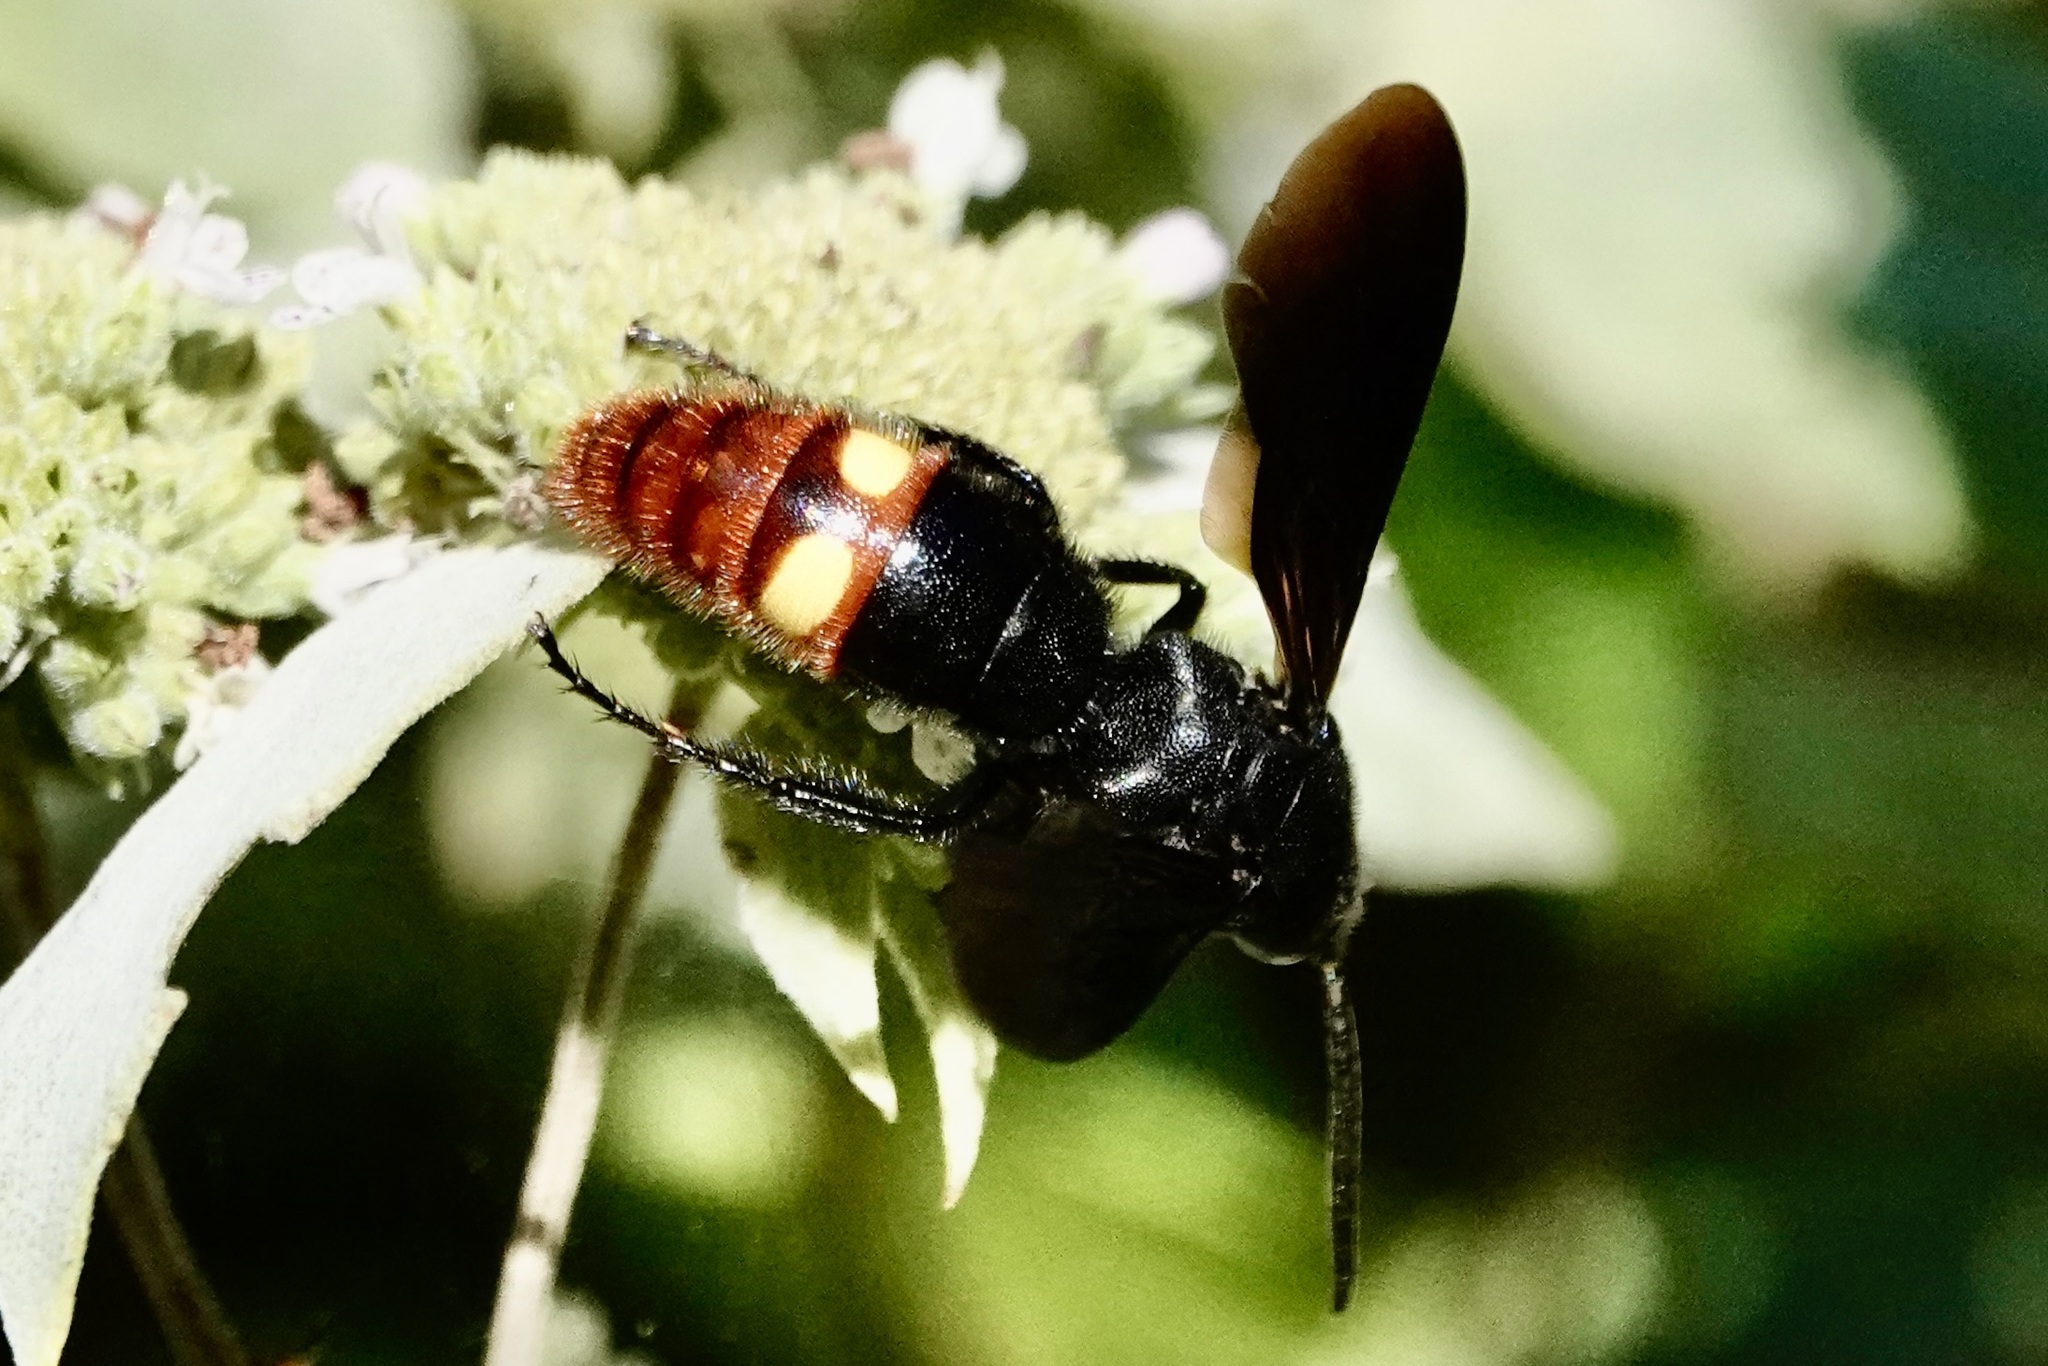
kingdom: Animalia
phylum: Arthropoda
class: Insecta
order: Hymenoptera
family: Scoliidae
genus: Scolia
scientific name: Scolia dubia
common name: Blue-winged scoliid wasp
